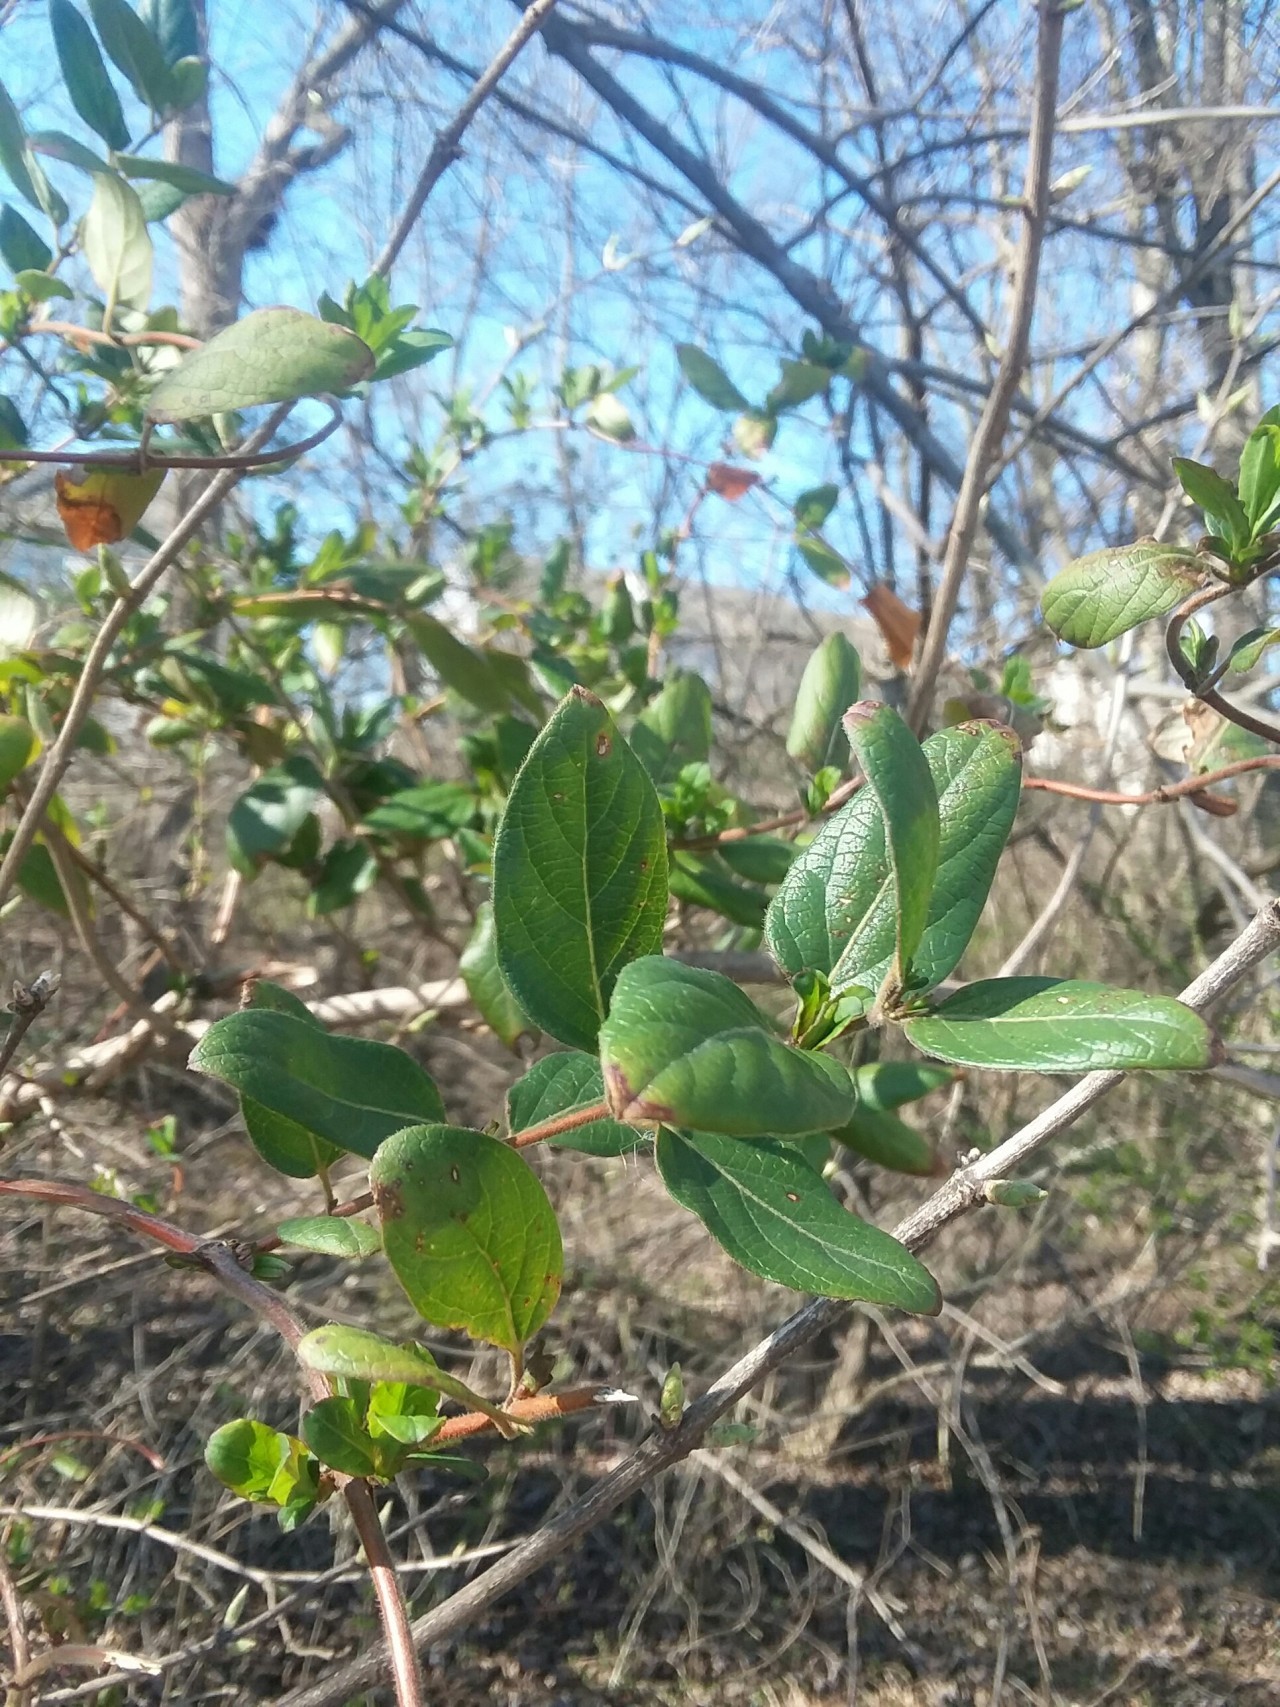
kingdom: Plantae
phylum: Tracheophyta
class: Magnoliopsida
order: Dipsacales
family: Caprifoliaceae
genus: Lonicera
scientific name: Lonicera japonica
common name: Japanese honeysuckle
